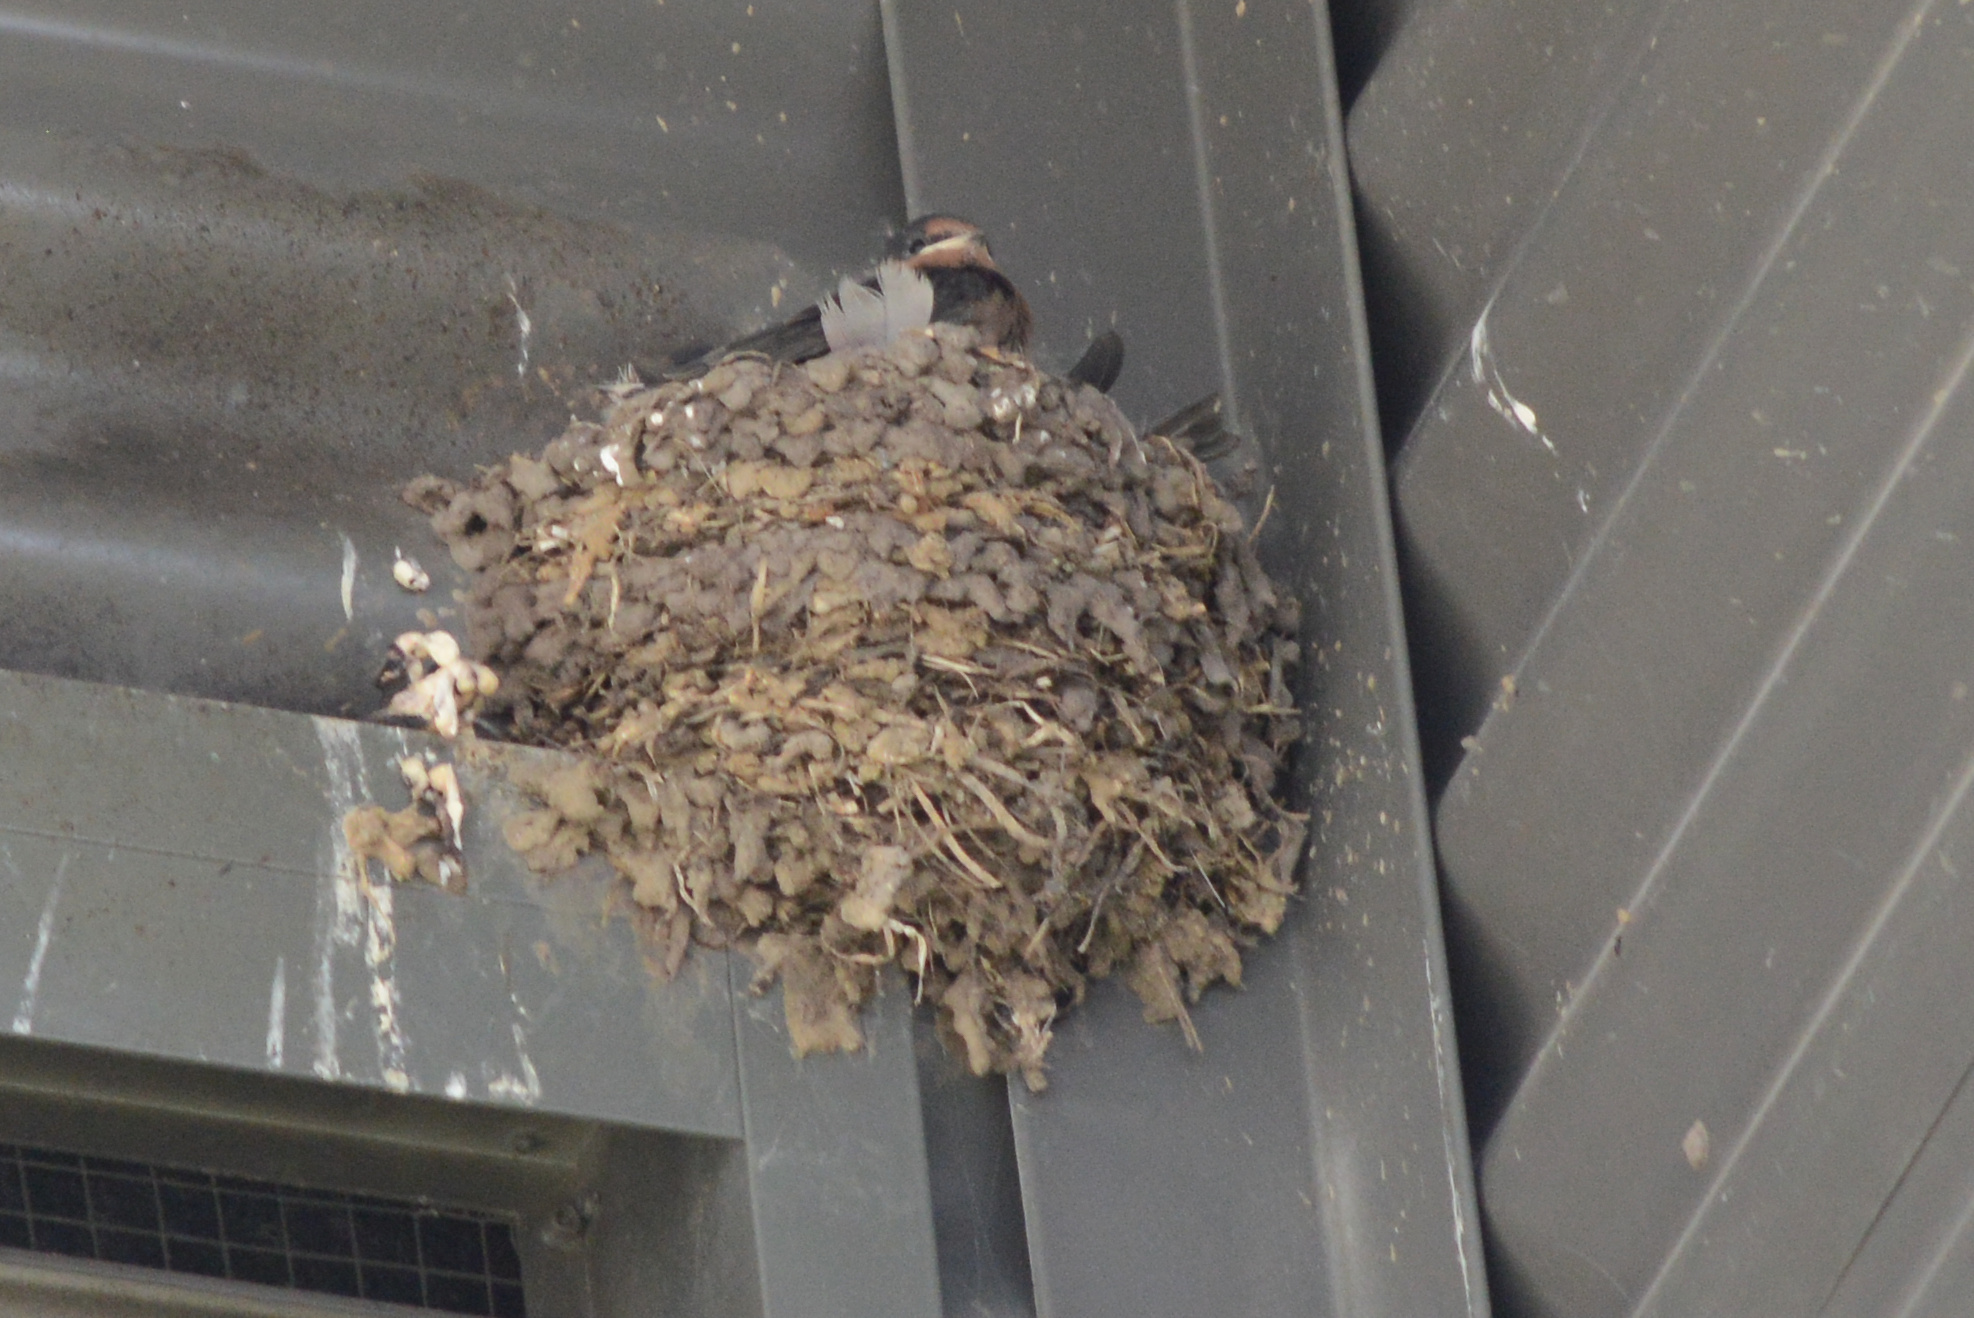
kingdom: Animalia
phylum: Chordata
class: Aves
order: Passeriformes
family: Hirundinidae
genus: Hirundo
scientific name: Hirundo neoxena
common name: Welcome swallow
